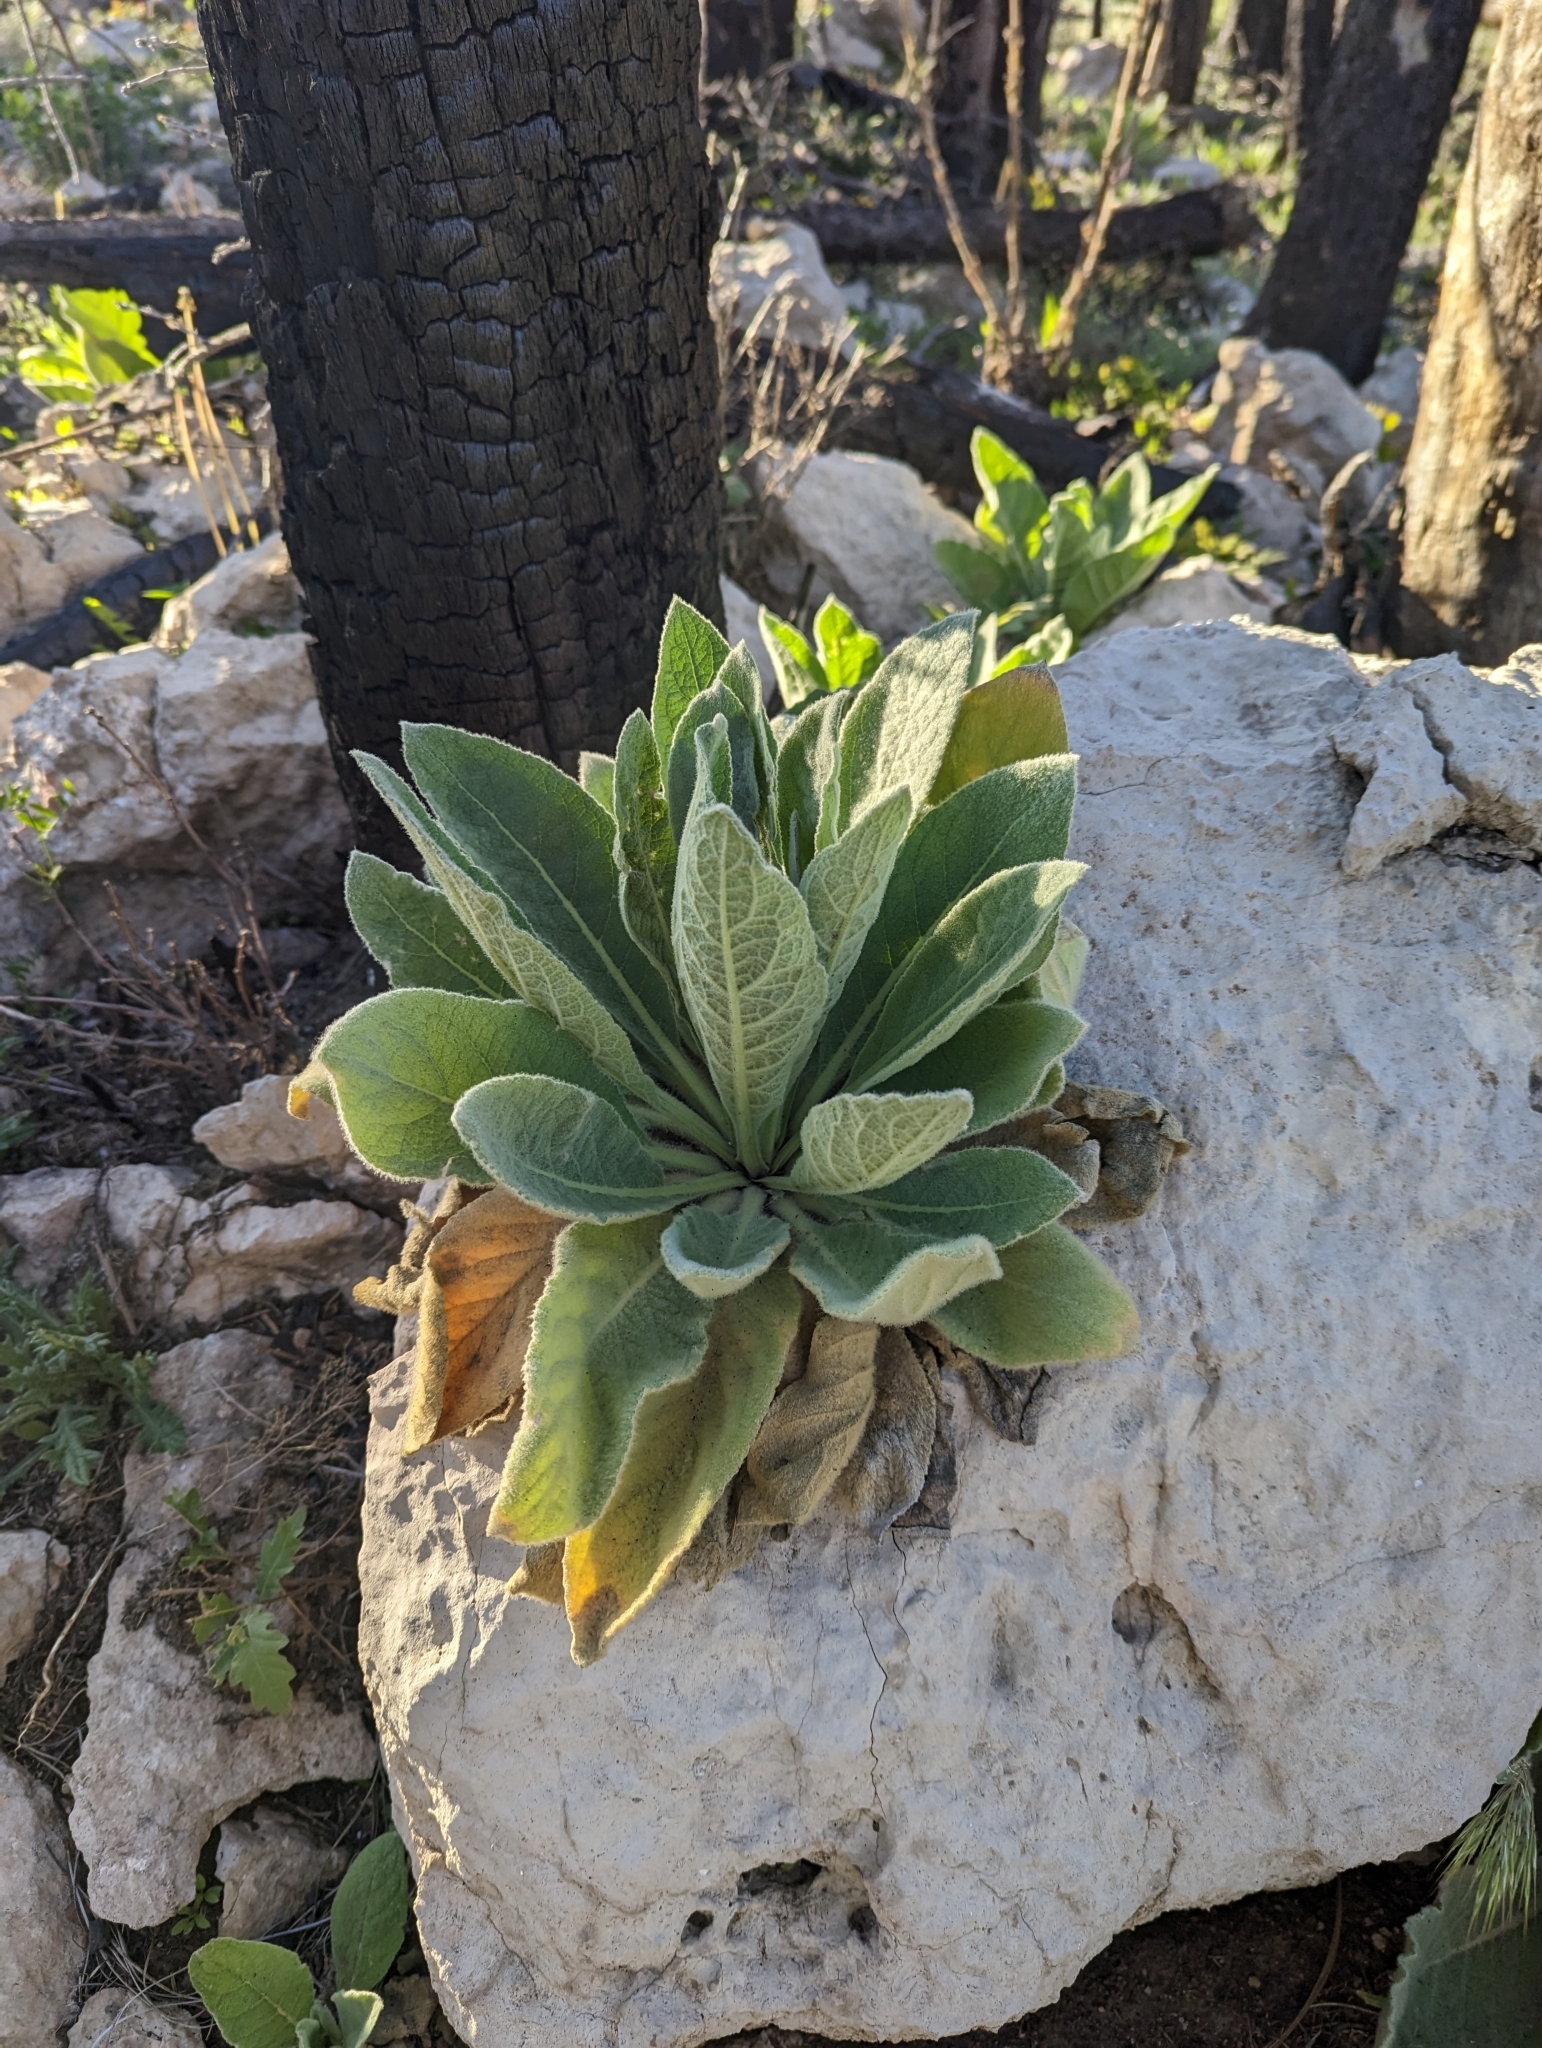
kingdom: Plantae
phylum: Tracheophyta
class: Magnoliopsida
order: Lamiales
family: Scrophulariaceae
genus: Verbascum
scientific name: Verbascum thapsus
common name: Common mullein
